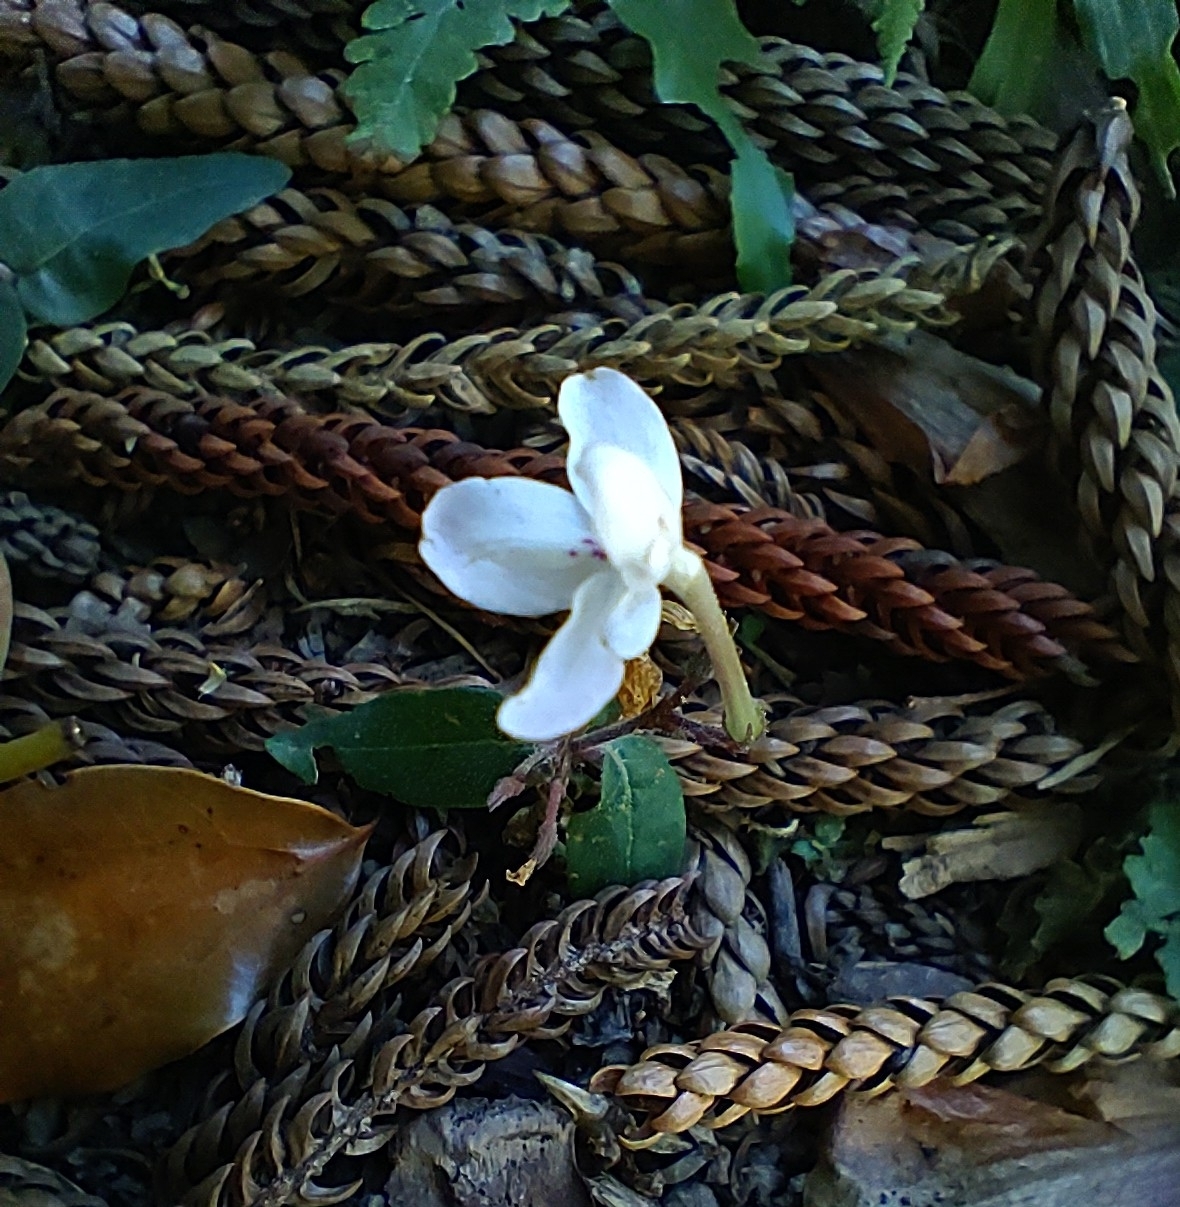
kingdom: Plantae
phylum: Tracheophyta
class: Magnoliopsida
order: Lamiales
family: Acanthaceae
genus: Pseuderanthemum
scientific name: Pseuderanthemum variabile
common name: Night and afternoon
